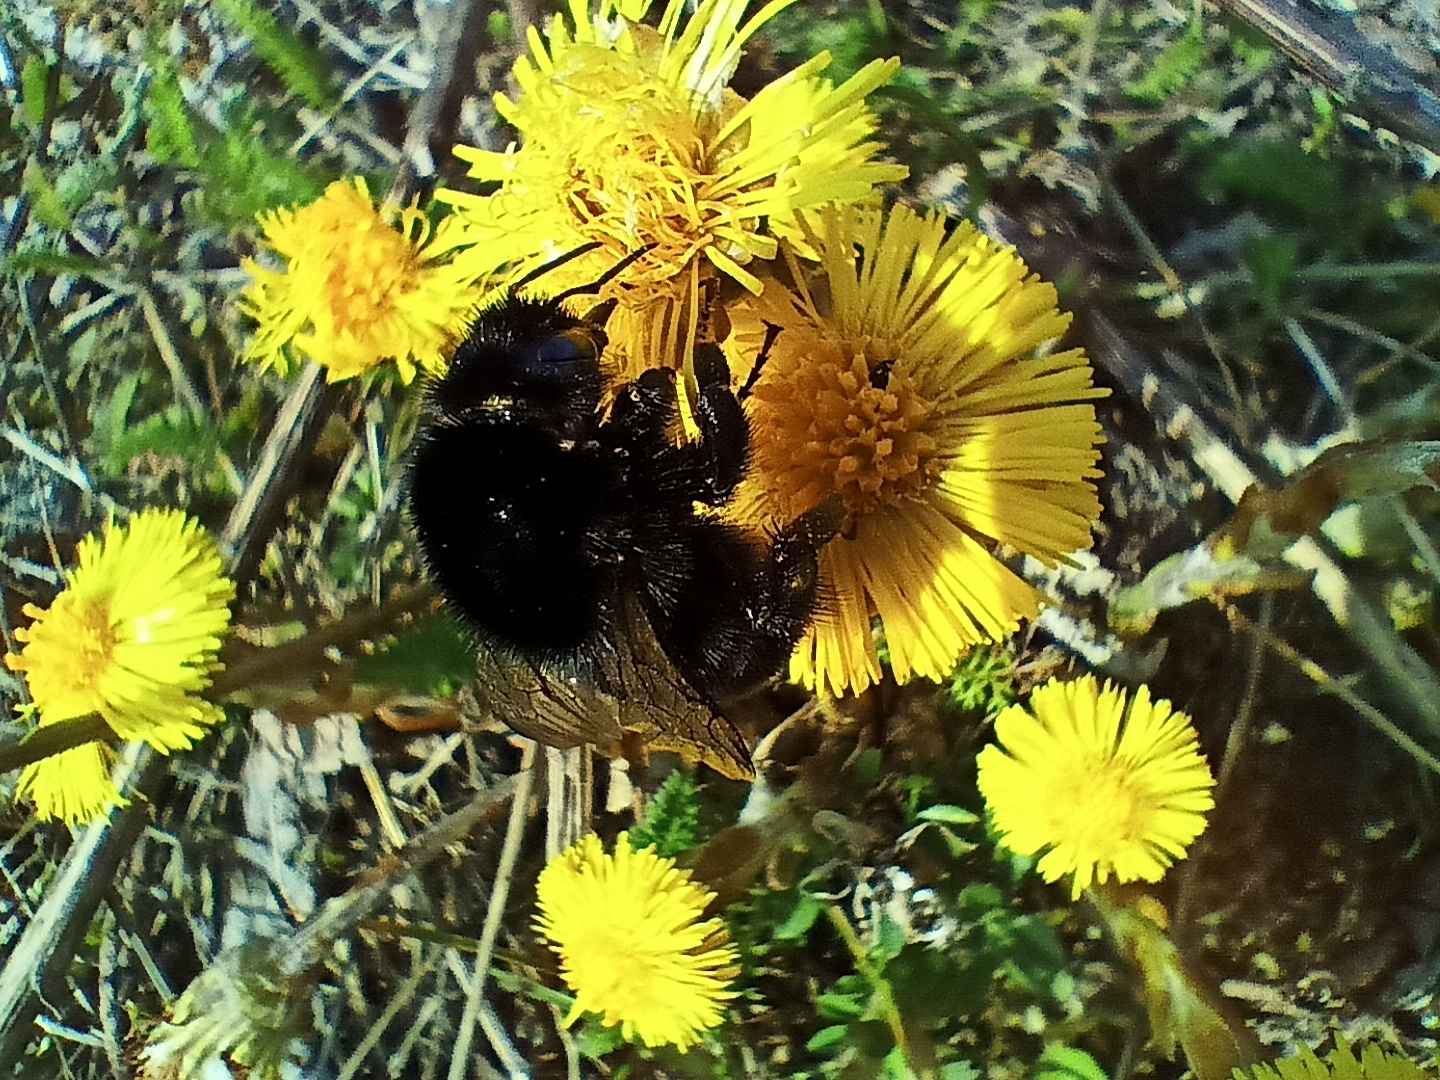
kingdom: Animalia
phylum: Arthropoda
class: Insecta
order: Hymenoptera
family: Apidae
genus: Bombus
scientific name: Bombus lapidarius
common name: Large red-tailed humble-bee
